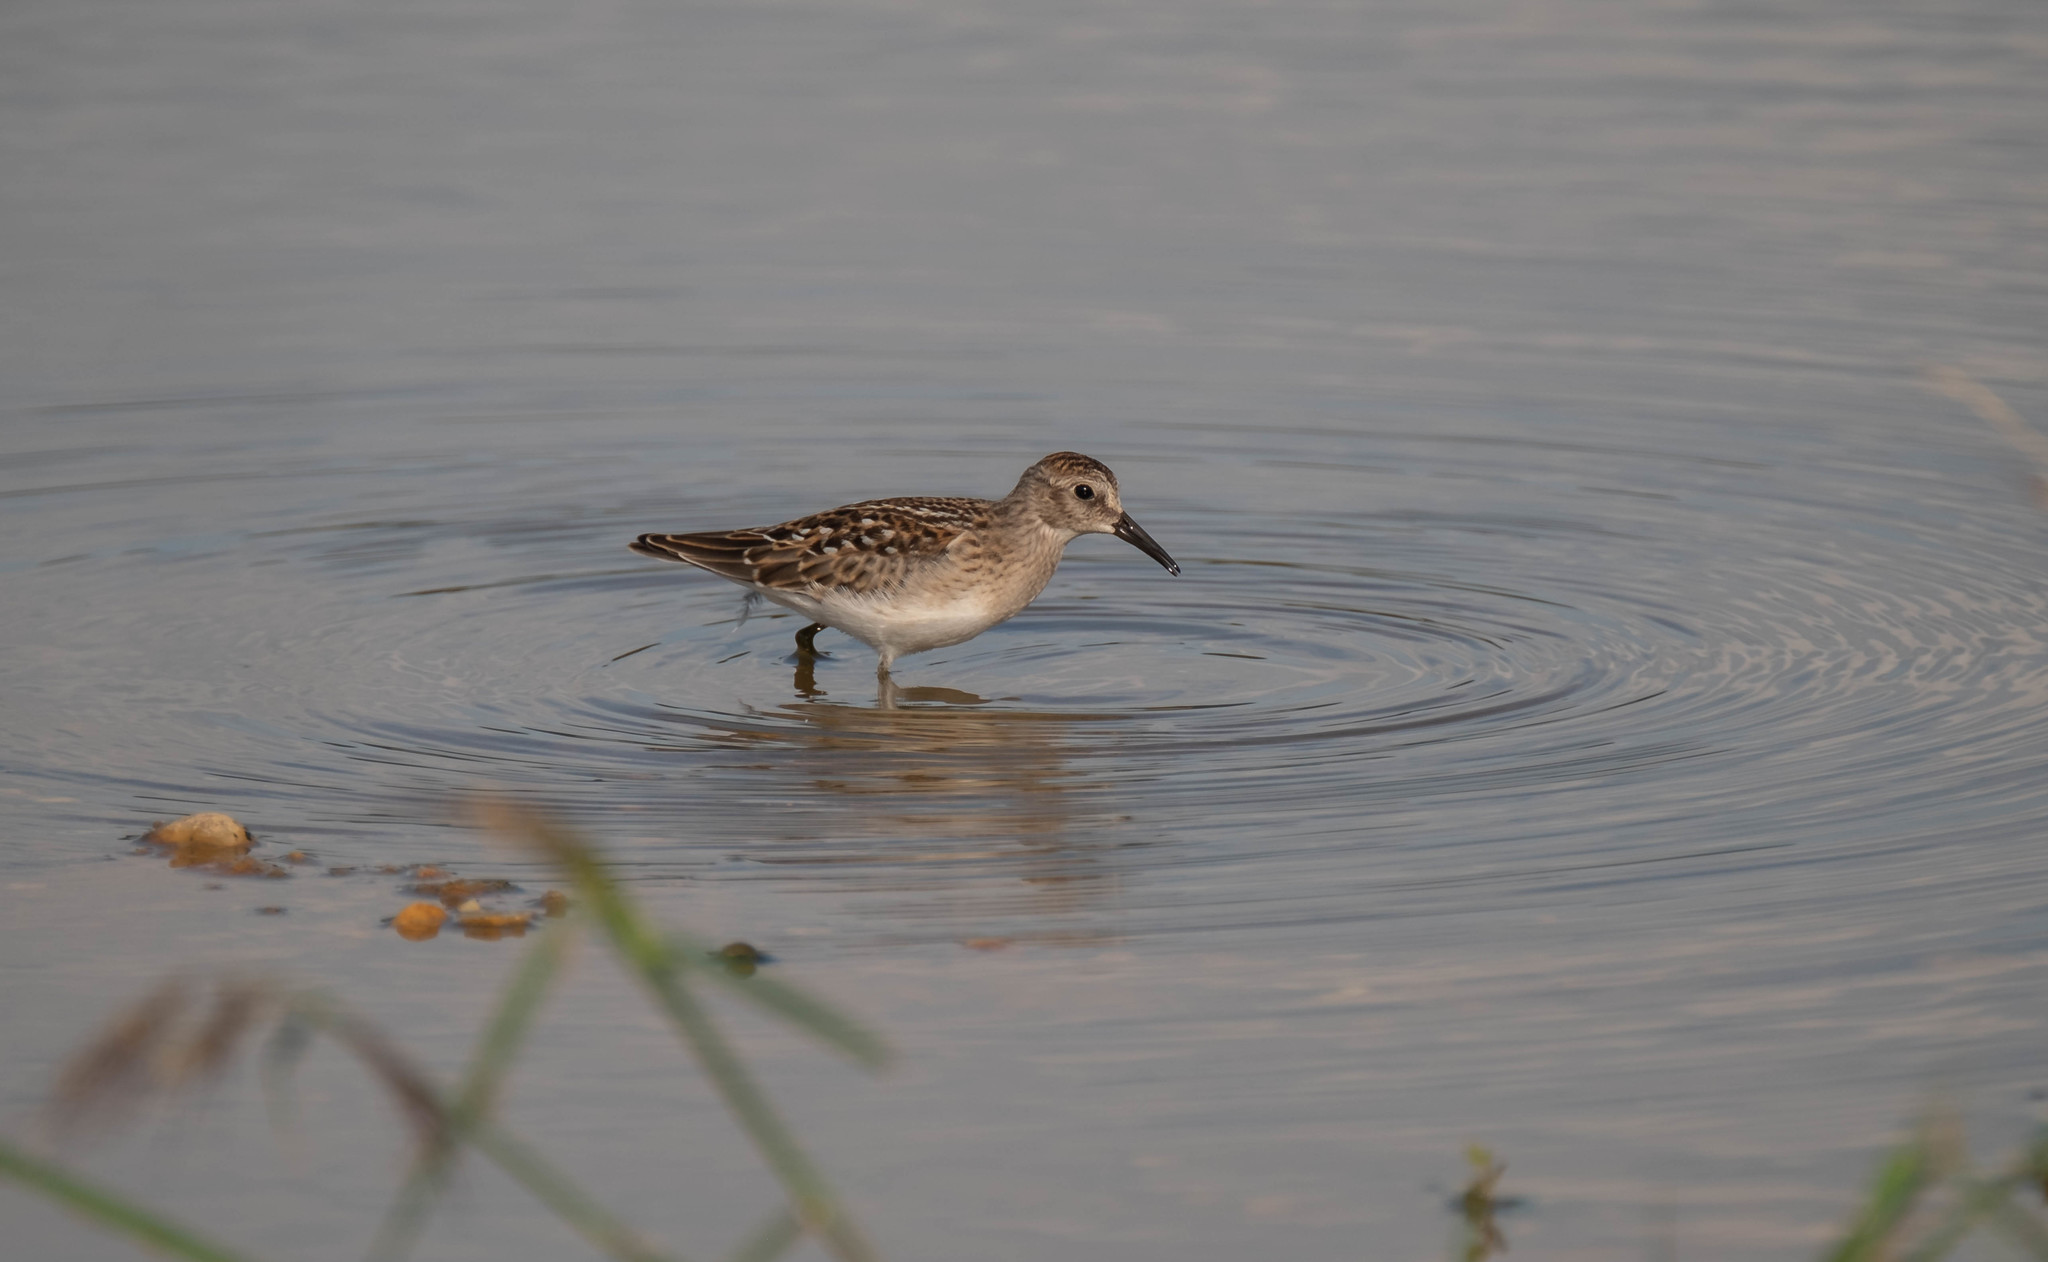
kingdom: Animalia
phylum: Chordata
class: Aves
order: Charadriiformes
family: Scolopacidae
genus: Calidris
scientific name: Calidris minutilla
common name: Least sandpiper
